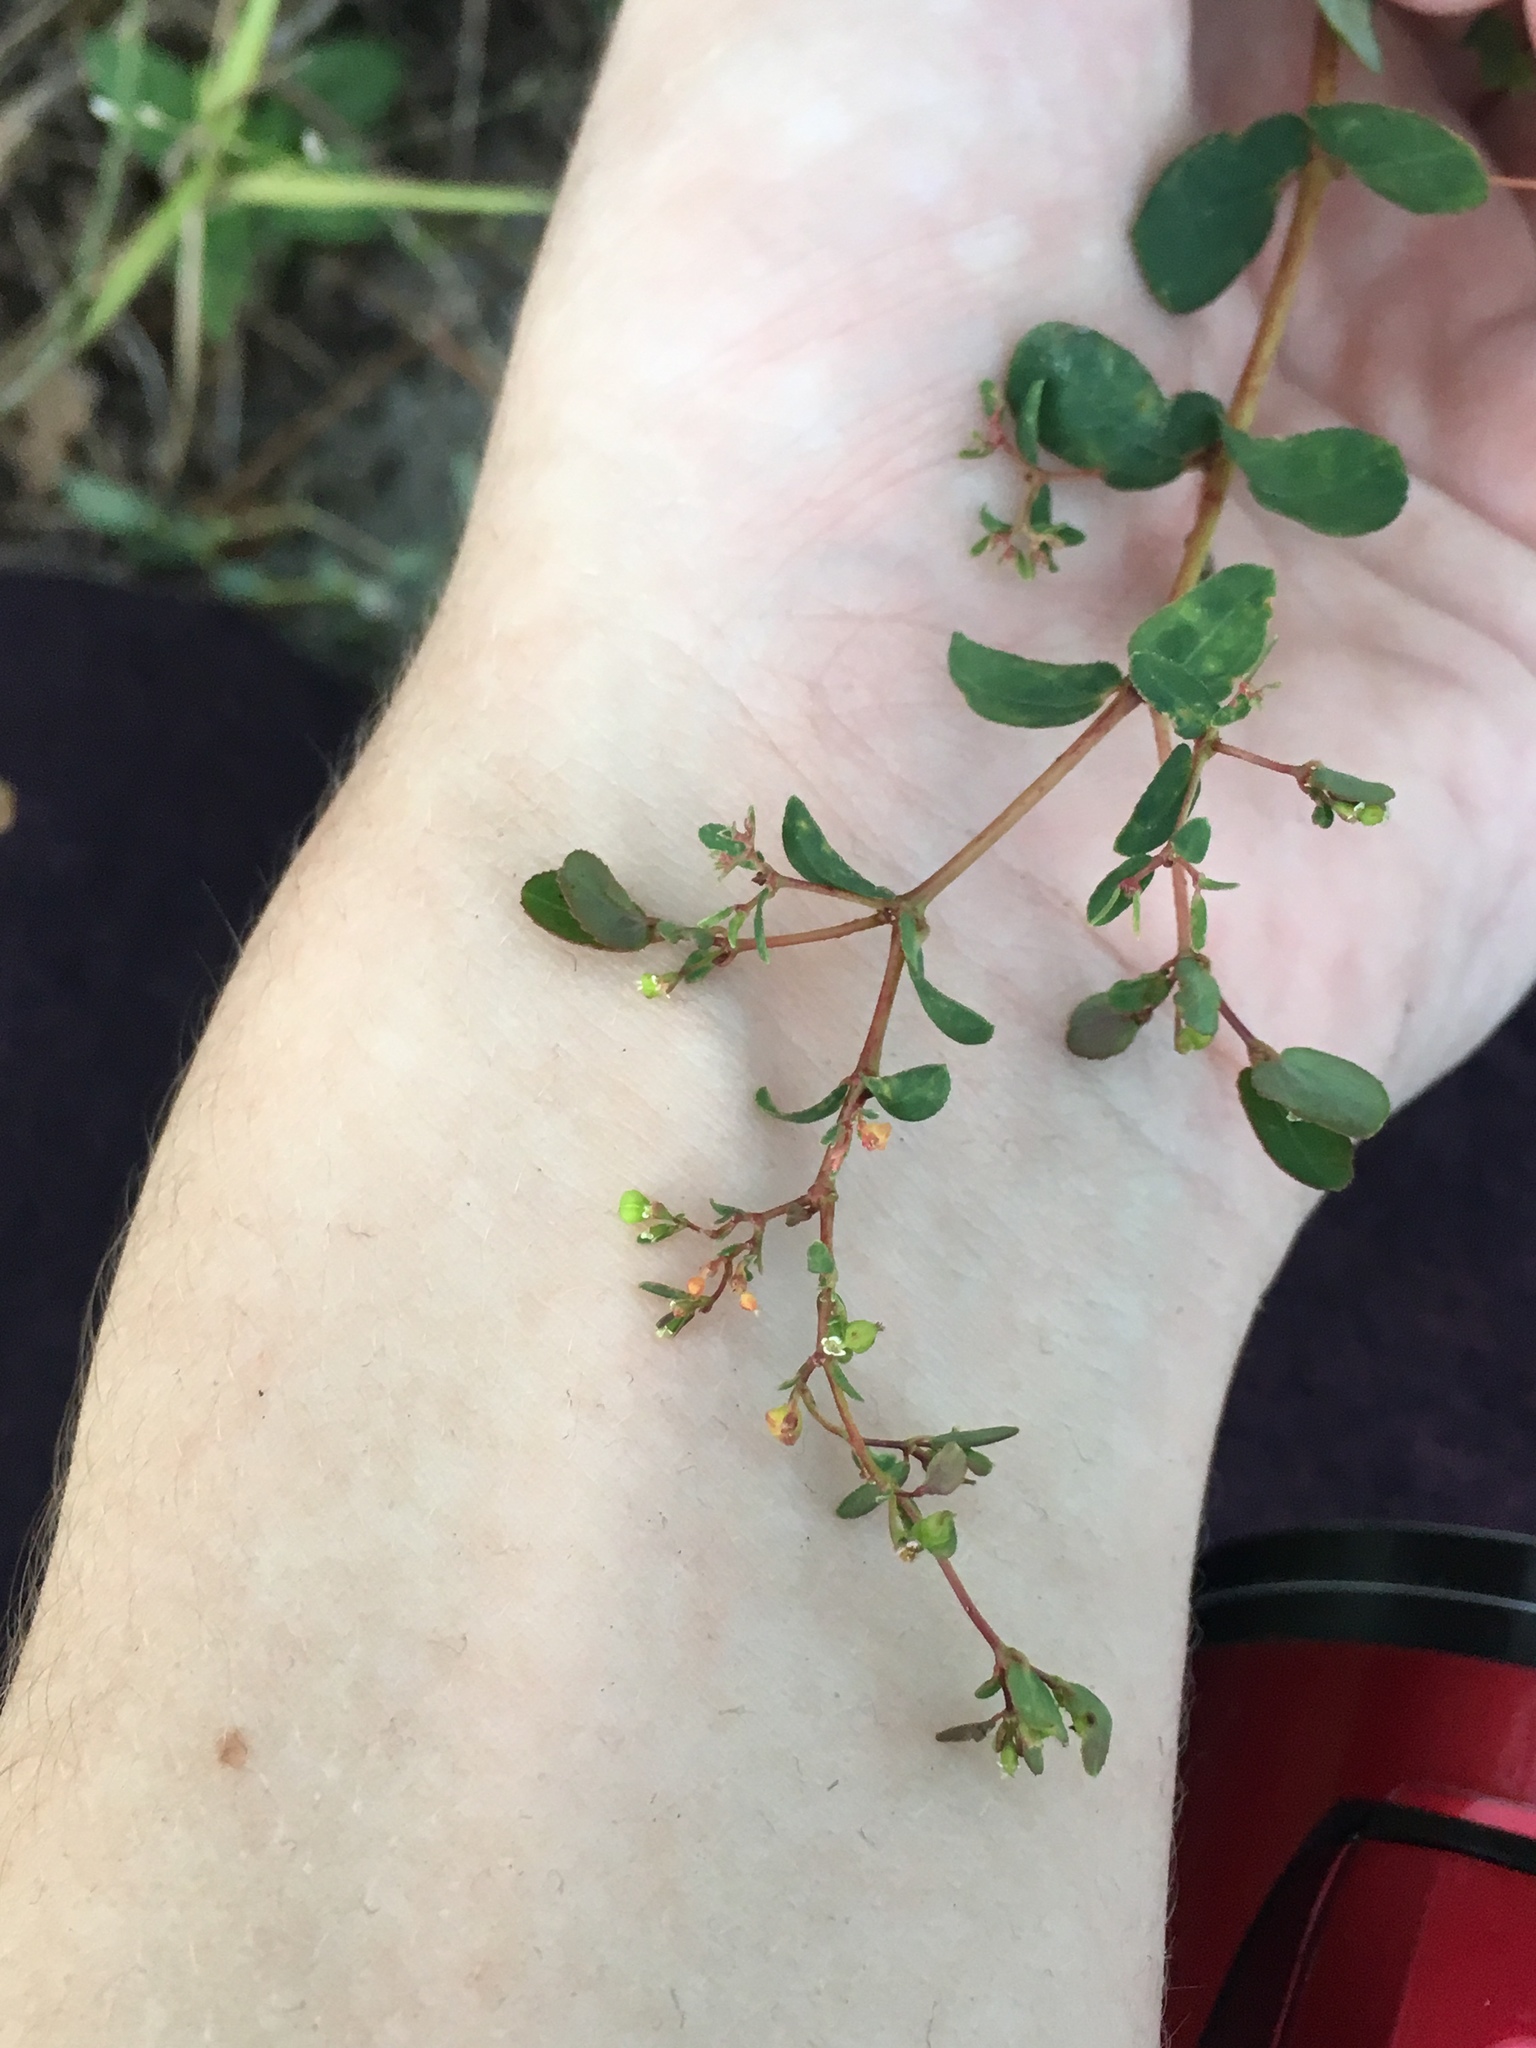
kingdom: Plantae
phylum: Tracheophyta
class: Magnoliopsida
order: Malpighiales
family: Euphorbiaceae
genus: Euphorbia
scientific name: Euphorbia hyssopifolia
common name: Hyssopleaf sandmat
